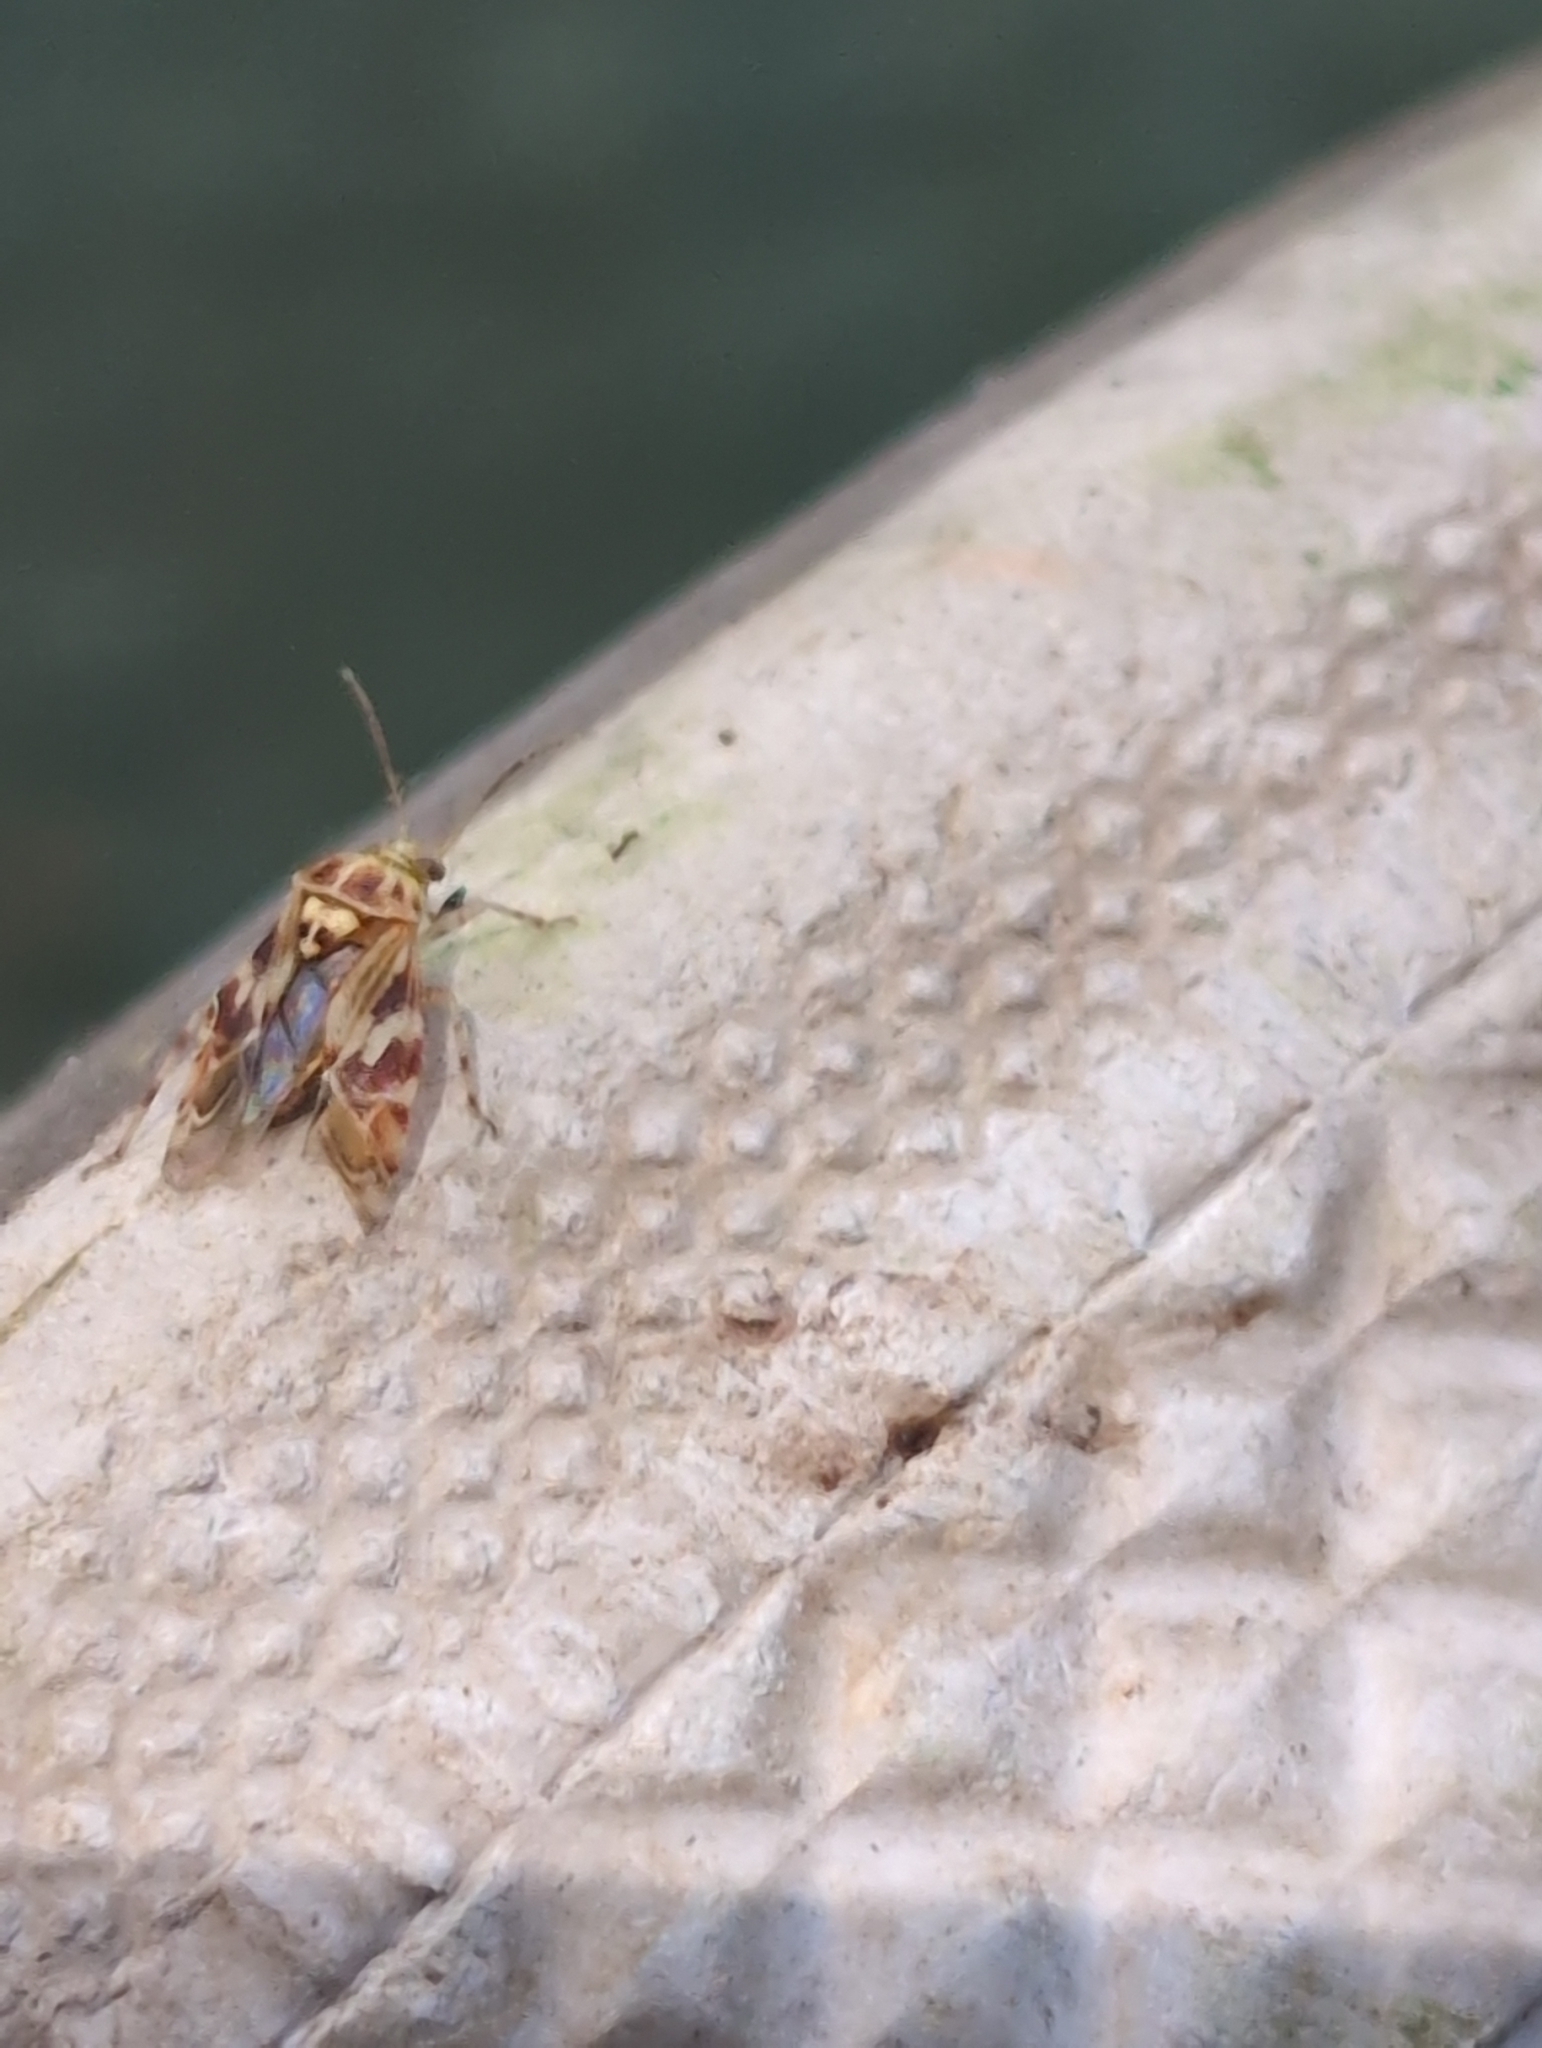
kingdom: Animalia
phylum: Arthropoda
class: Insecta
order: Hemiptera
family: Miridae
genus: Tropidosteptes
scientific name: Tropidosteptes quercicola
